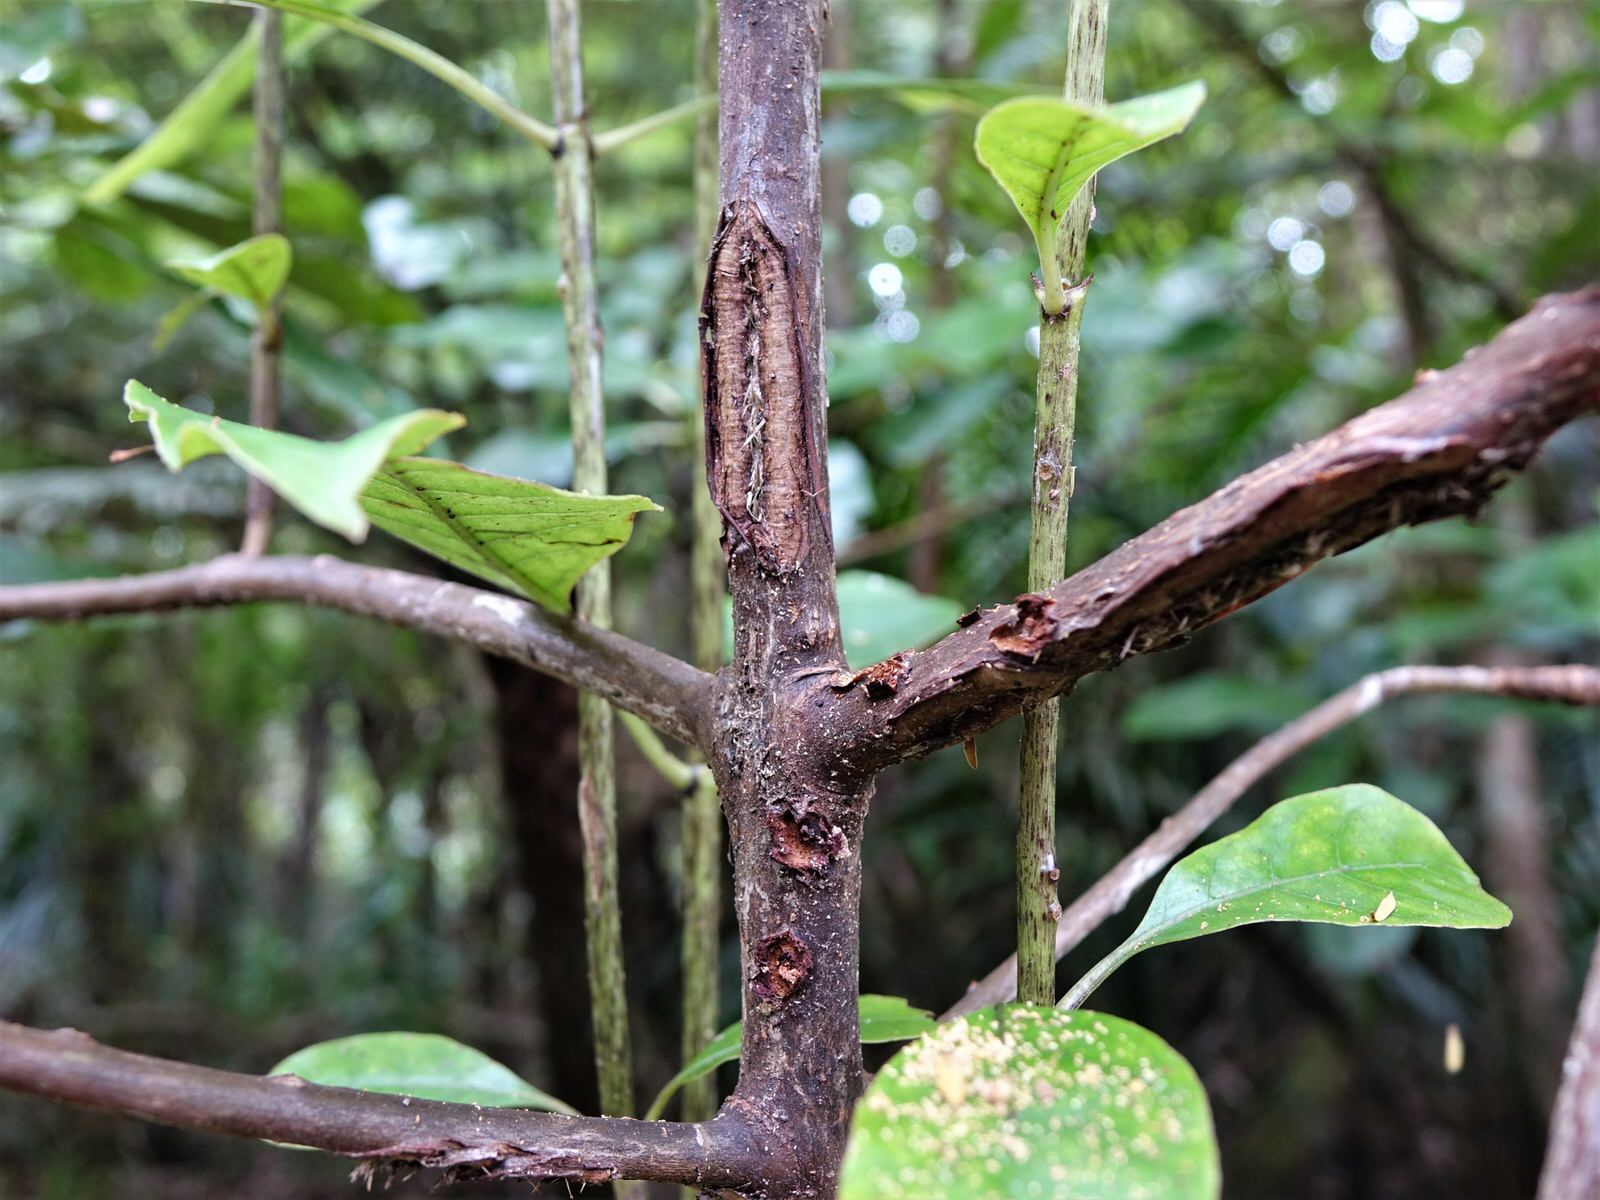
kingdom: Plantae
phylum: Tracheophyta
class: Magnoliopsida
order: Gentianales
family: Rubiaceae
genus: Coprosma
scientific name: Coprosma autumnalis
